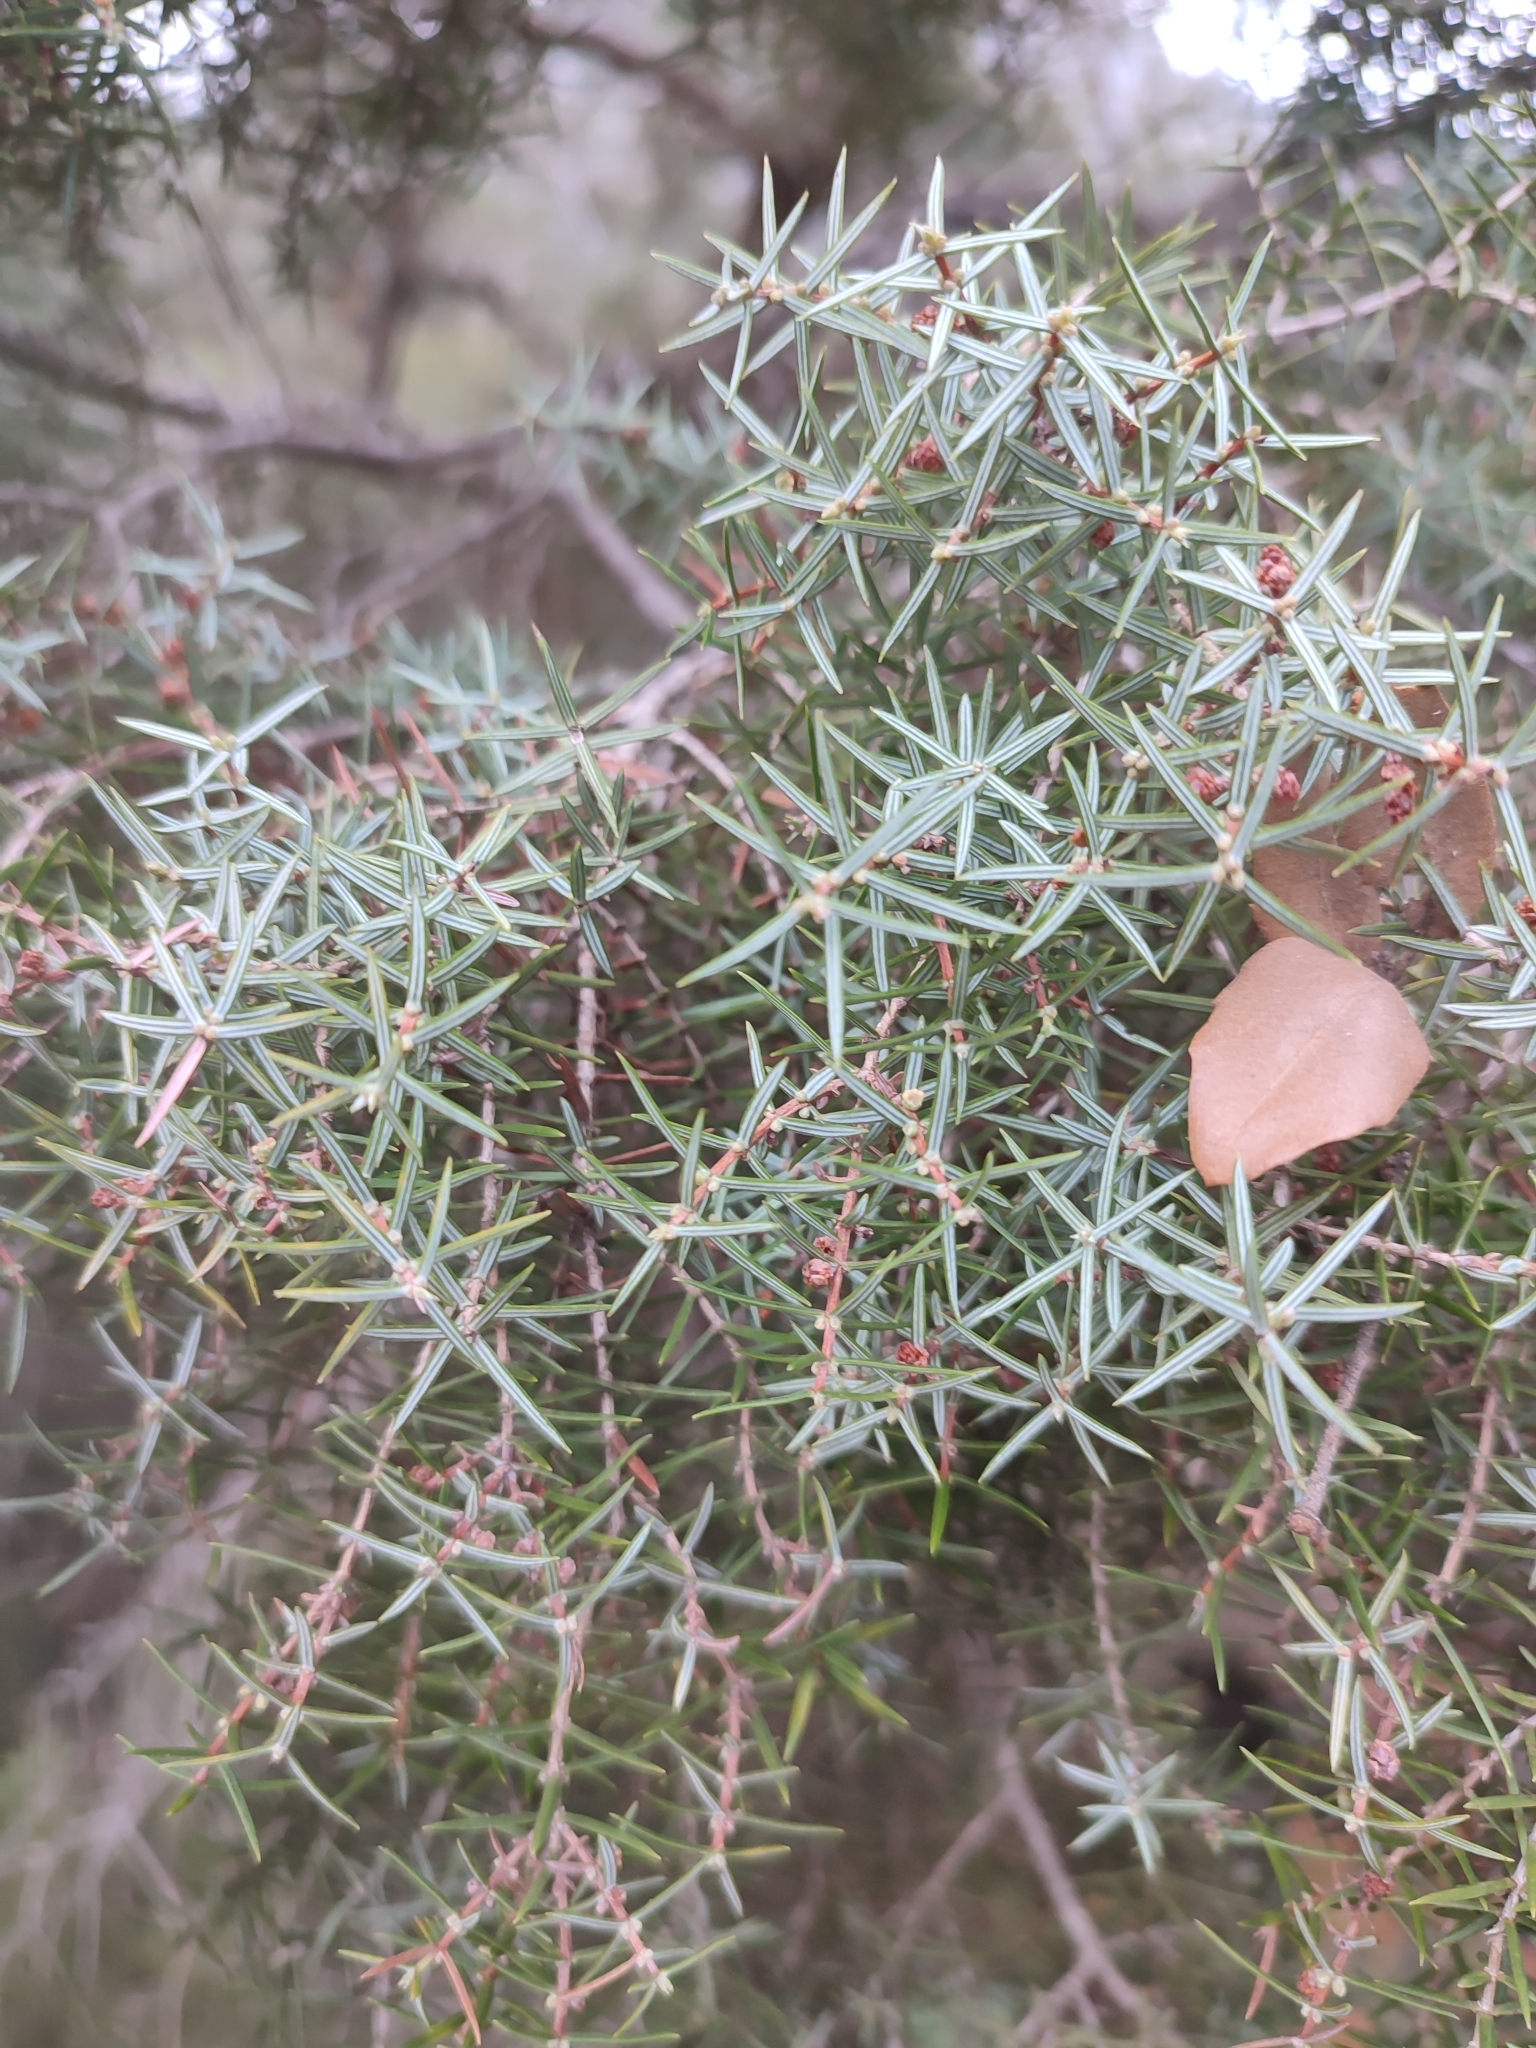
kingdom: Plantae
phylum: Tracheophyta
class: Pinopsida
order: Pinales
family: Cupressaceae
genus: Juniperus
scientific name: Juniperus oxycedrus
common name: Prickly juniper
